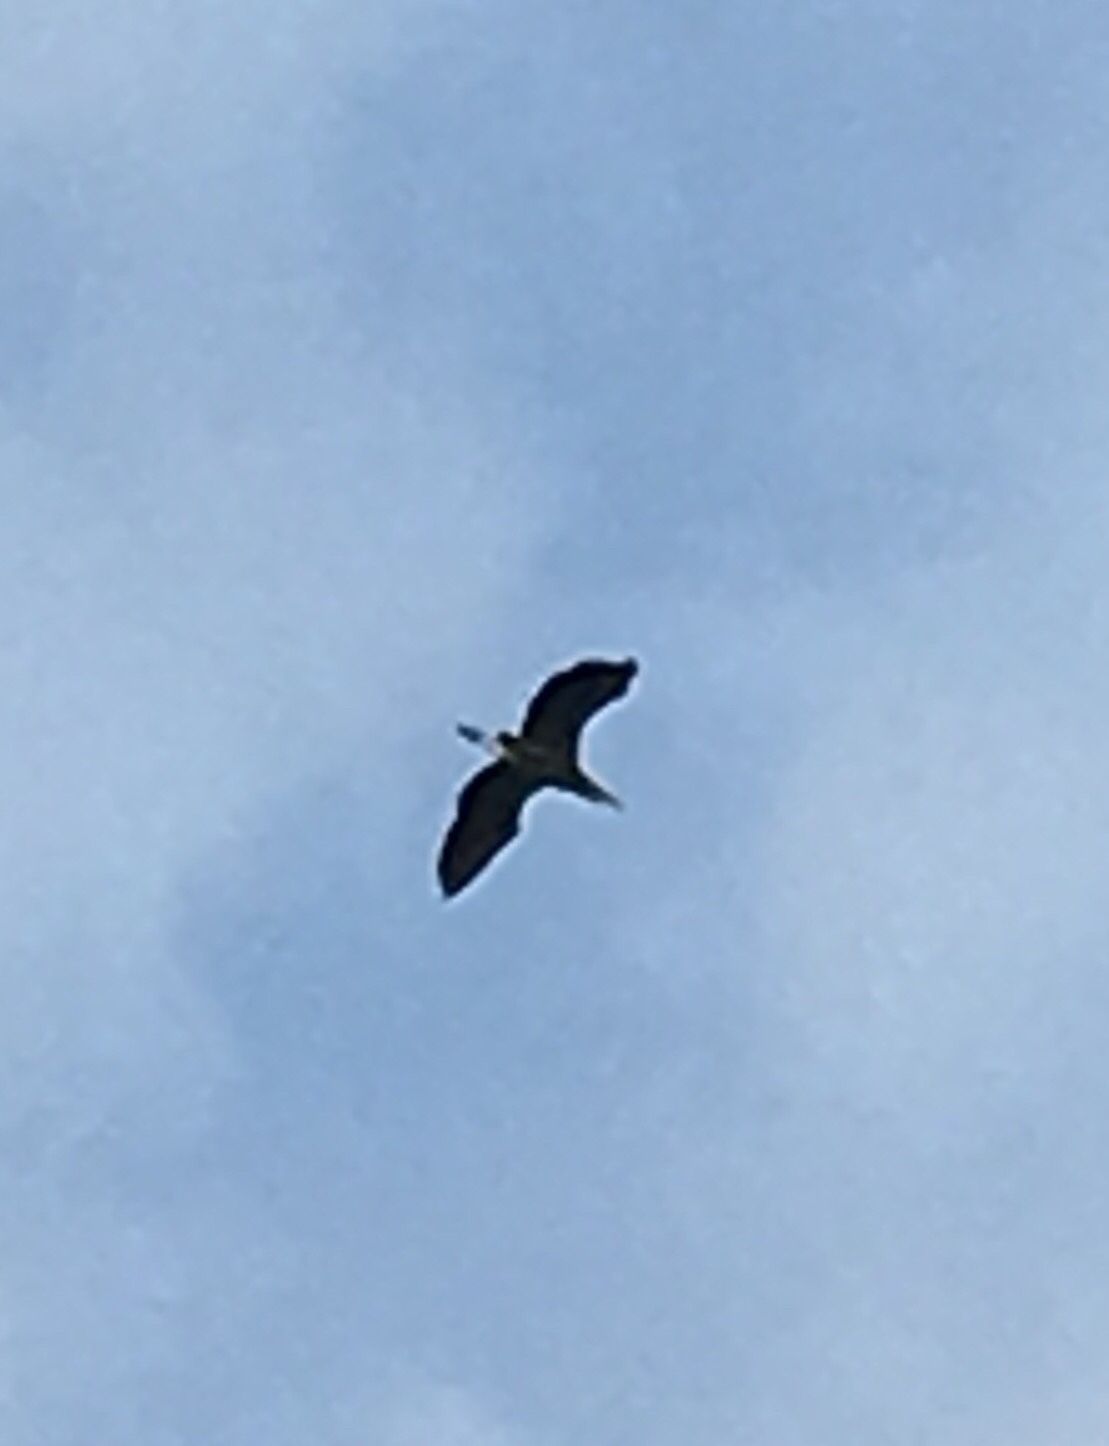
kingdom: Animalia
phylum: Chordata
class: Aves
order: Pelecaniformes
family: Ardeidae
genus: Ardea
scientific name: Ardea herodias
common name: Great blue heron
